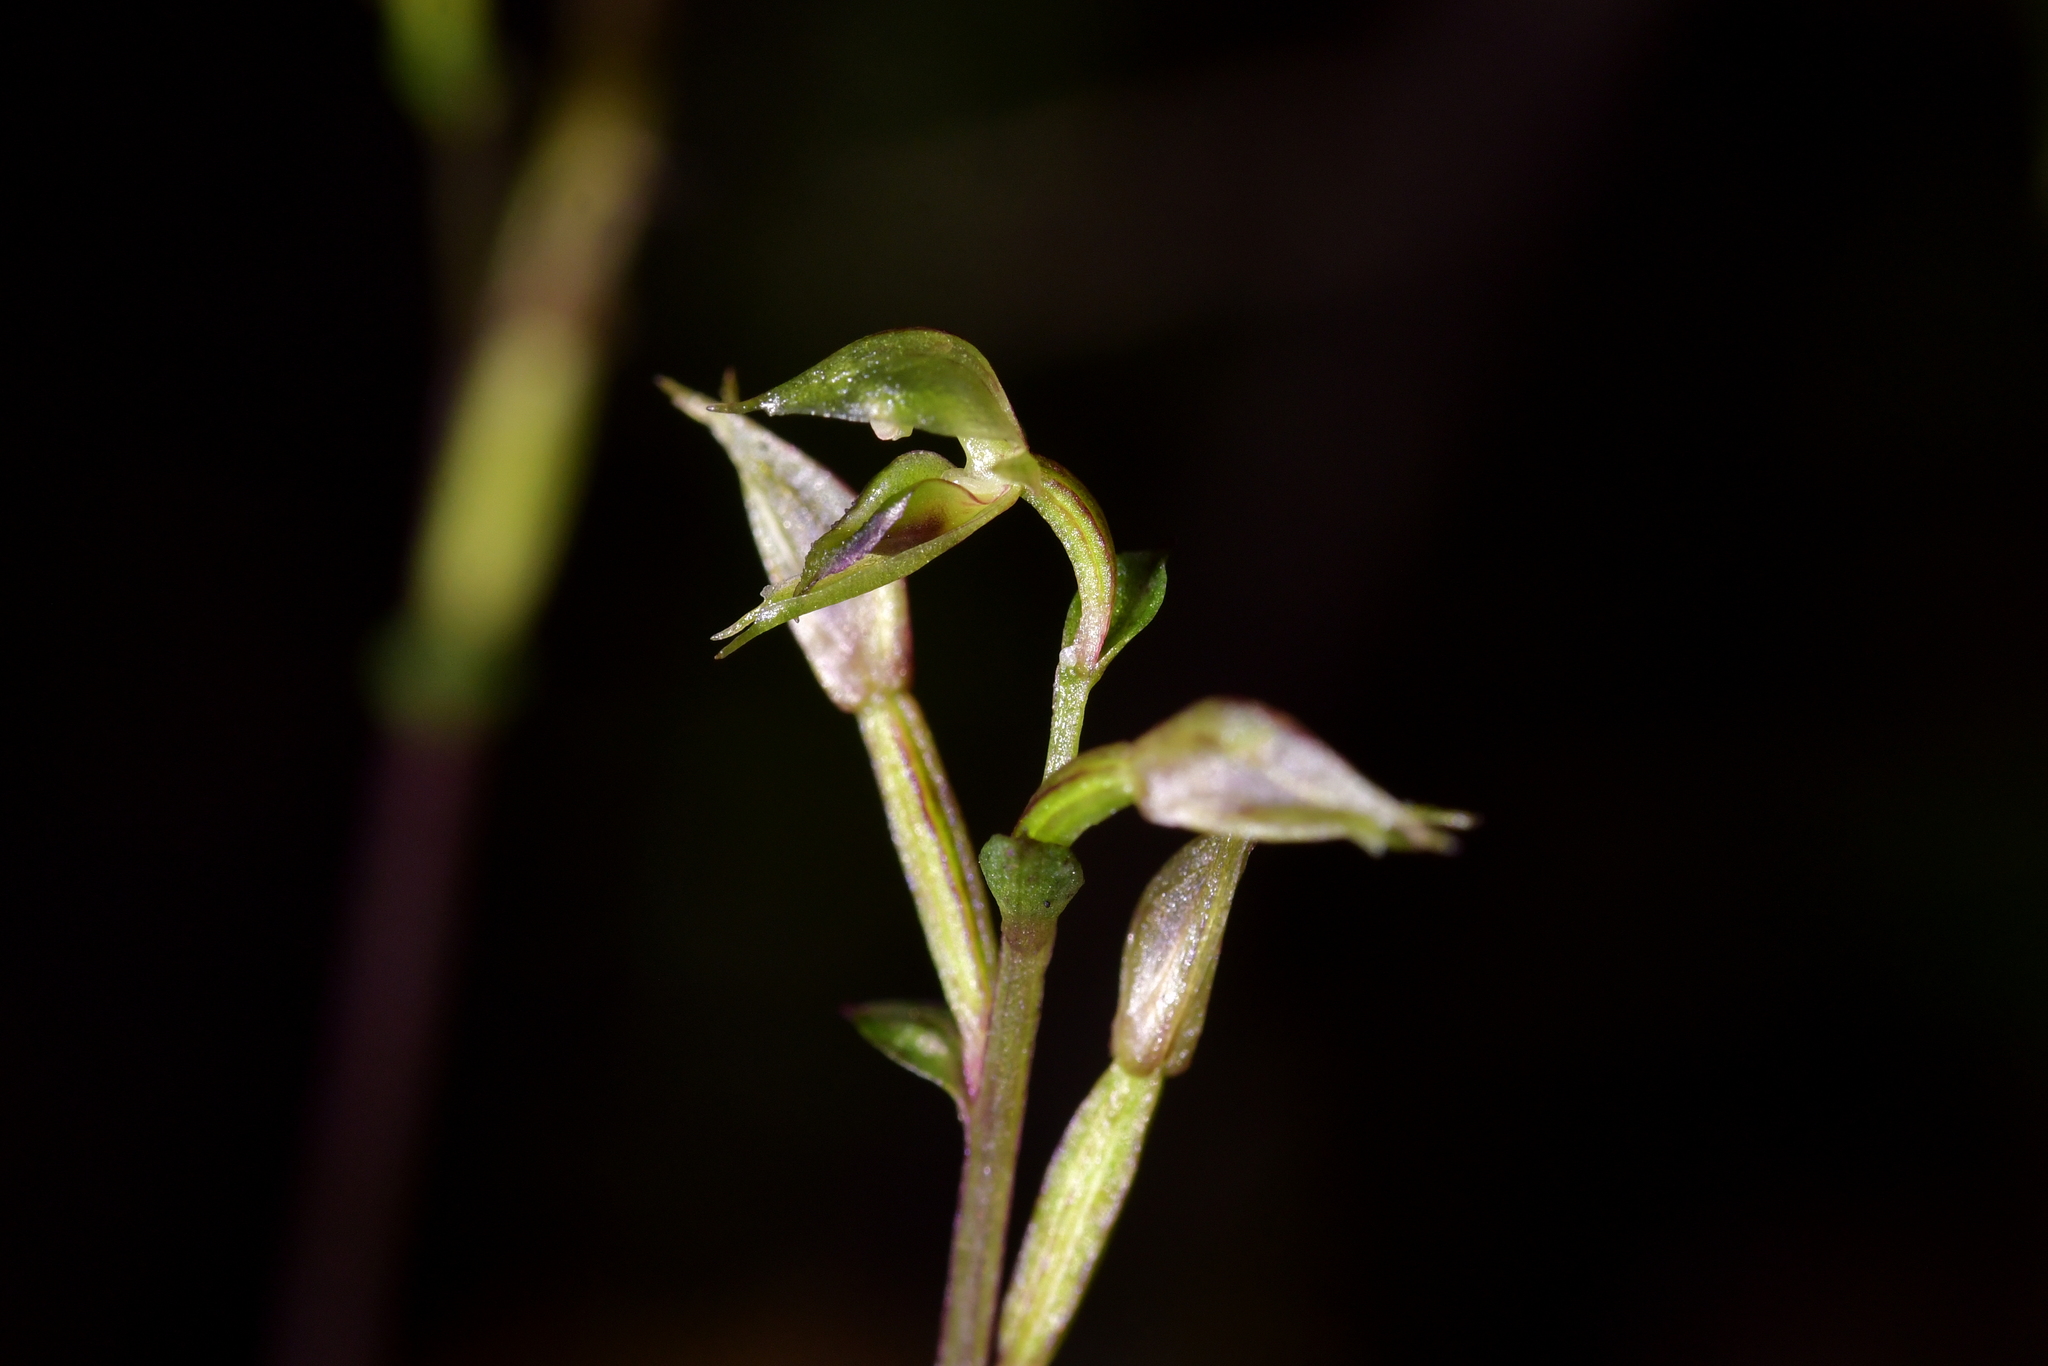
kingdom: Plantae
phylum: Tracheophyta
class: Liliopsida
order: Asparagales
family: Orchidaceae
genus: Acianthus
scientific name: Acianthus sinclairii
